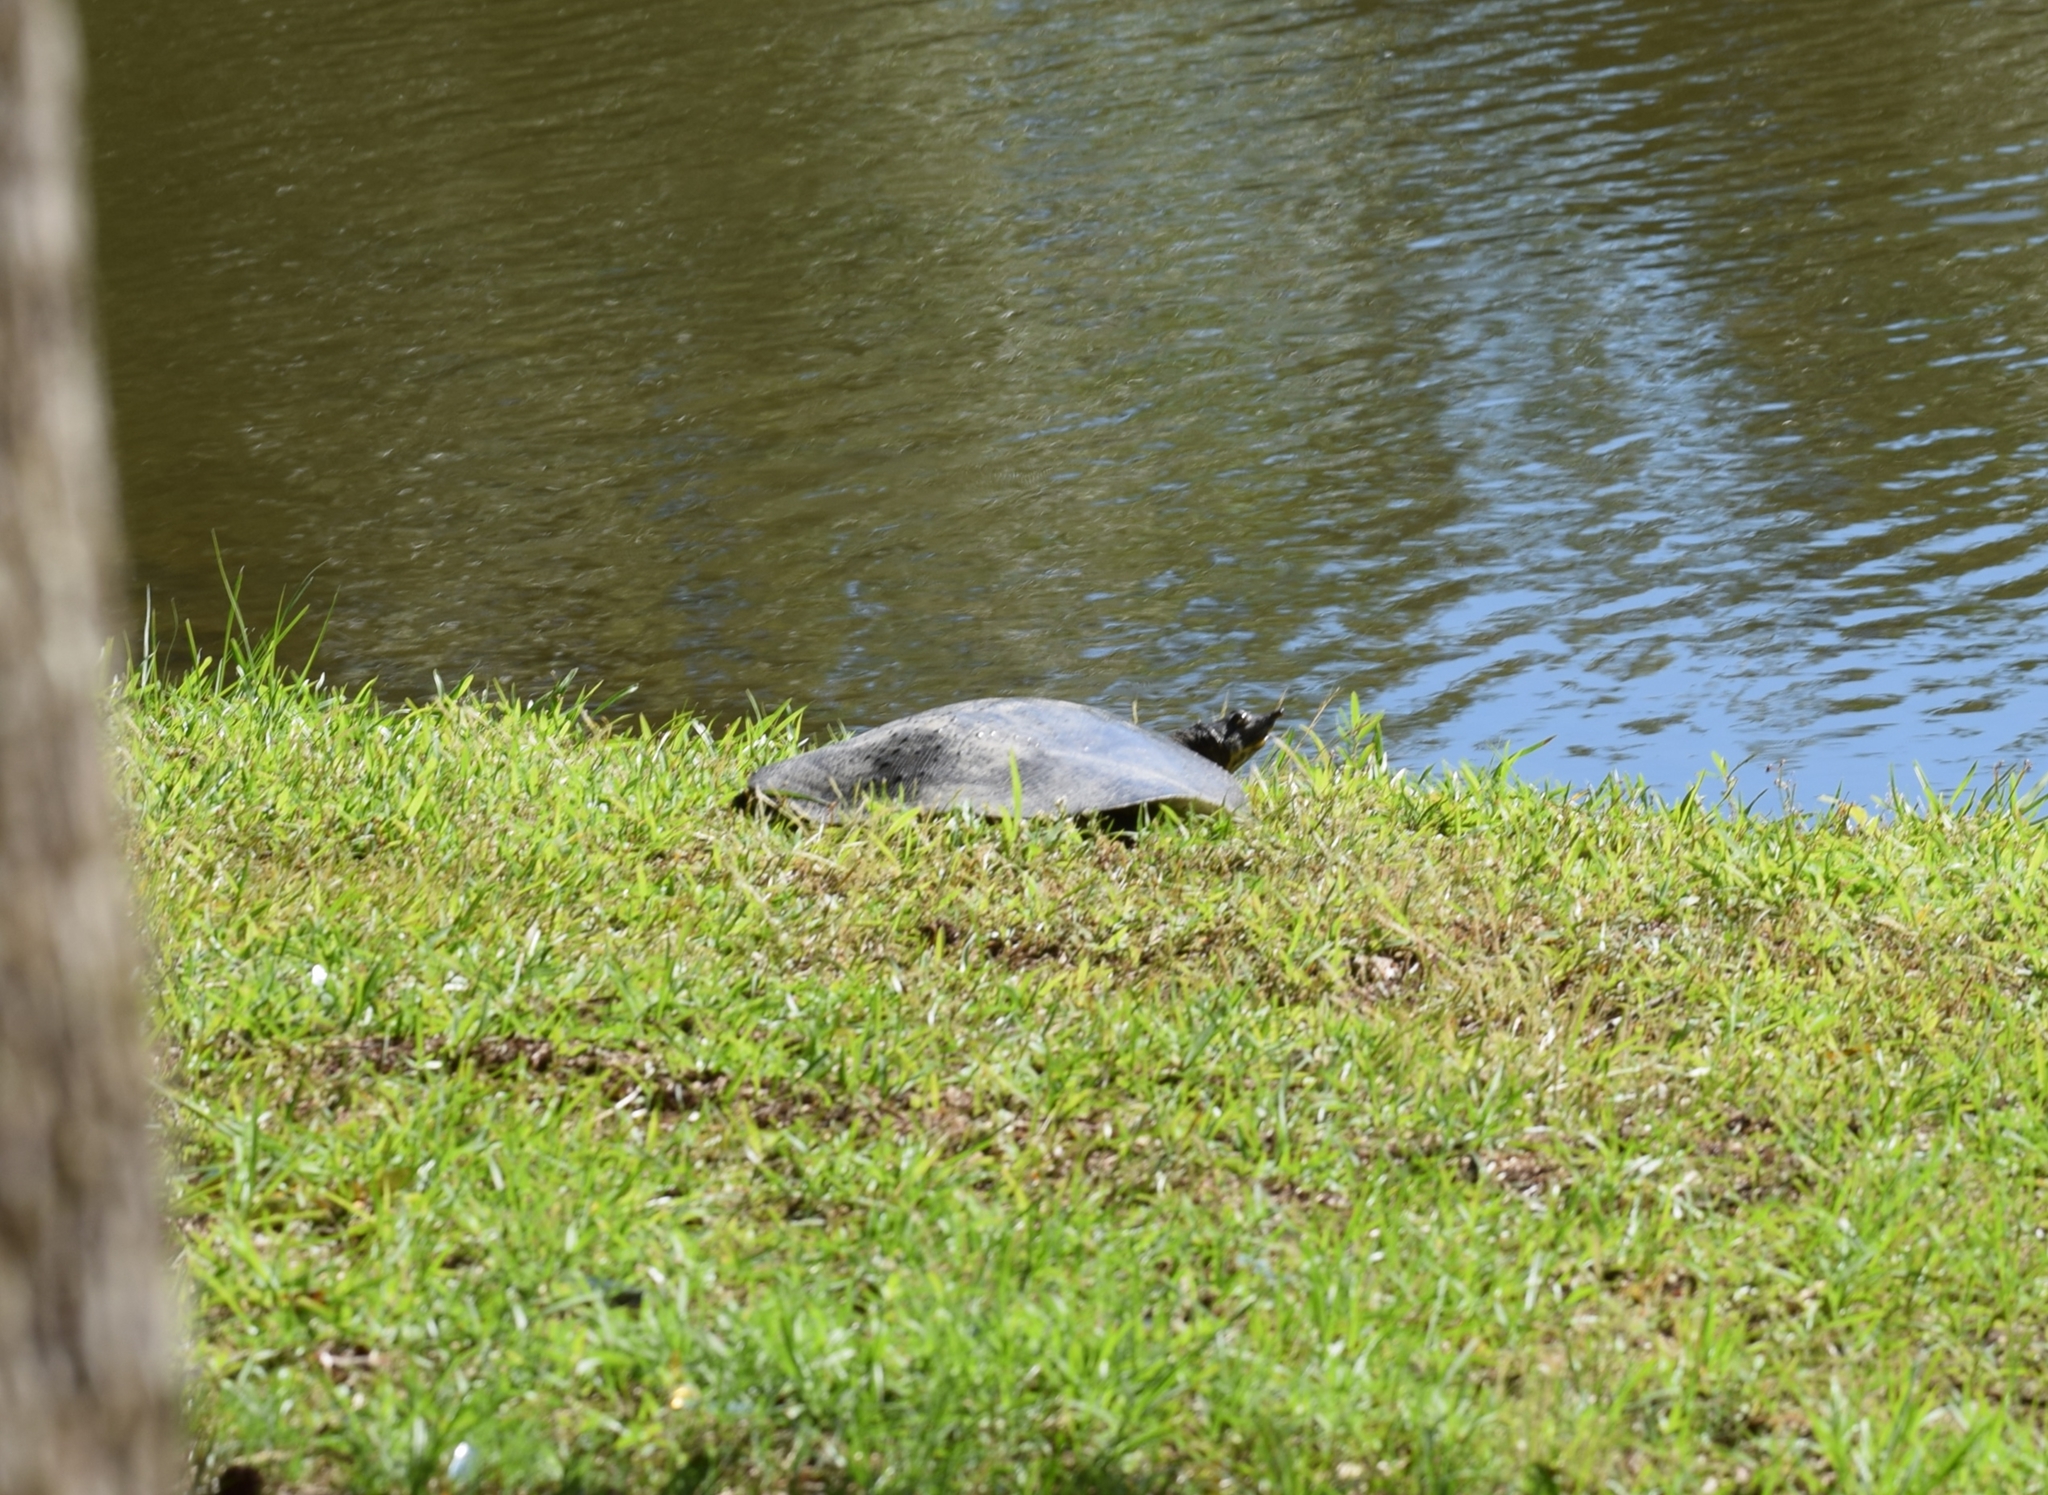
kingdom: Animalia
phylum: Chordata
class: Testudines
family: Trionychidae
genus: Apalone
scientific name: Apalone spinifera
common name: Spiny softshell turtle
